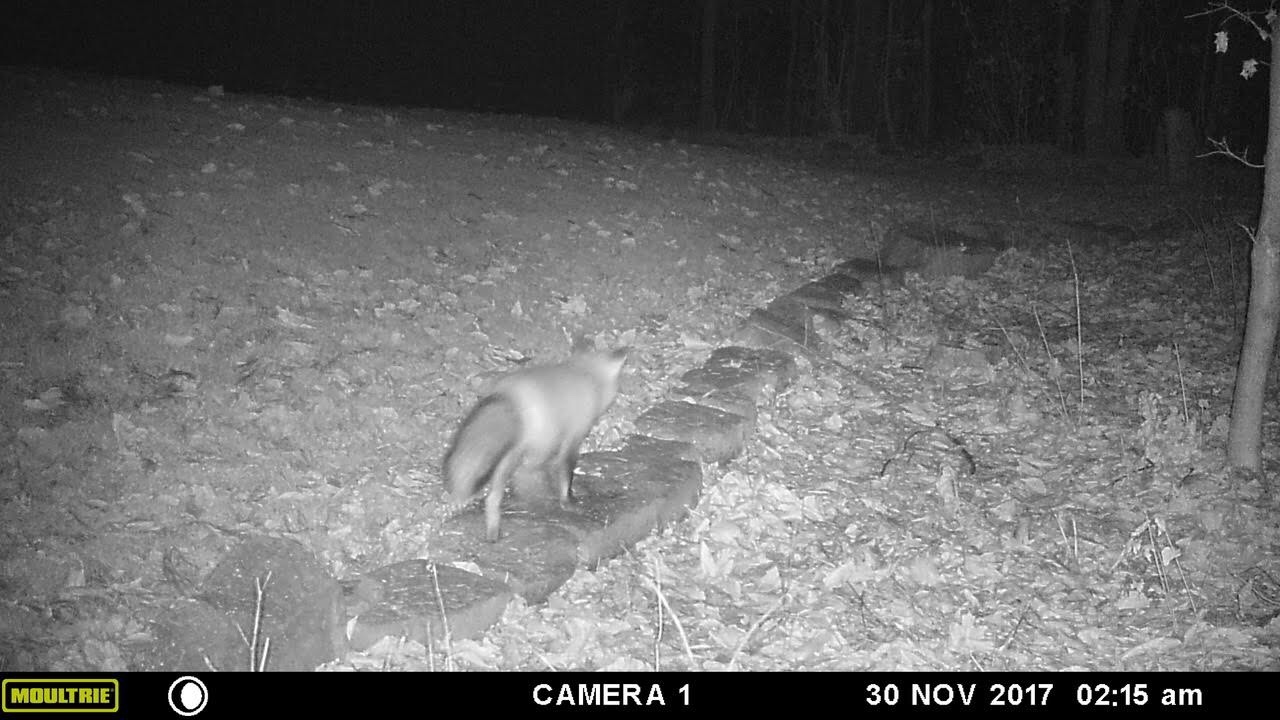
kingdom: Animalia
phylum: Chordata
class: Mammalia
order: Carnivora
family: Canidae
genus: Vulpes
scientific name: Vulpes vulpes
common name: Red fox
